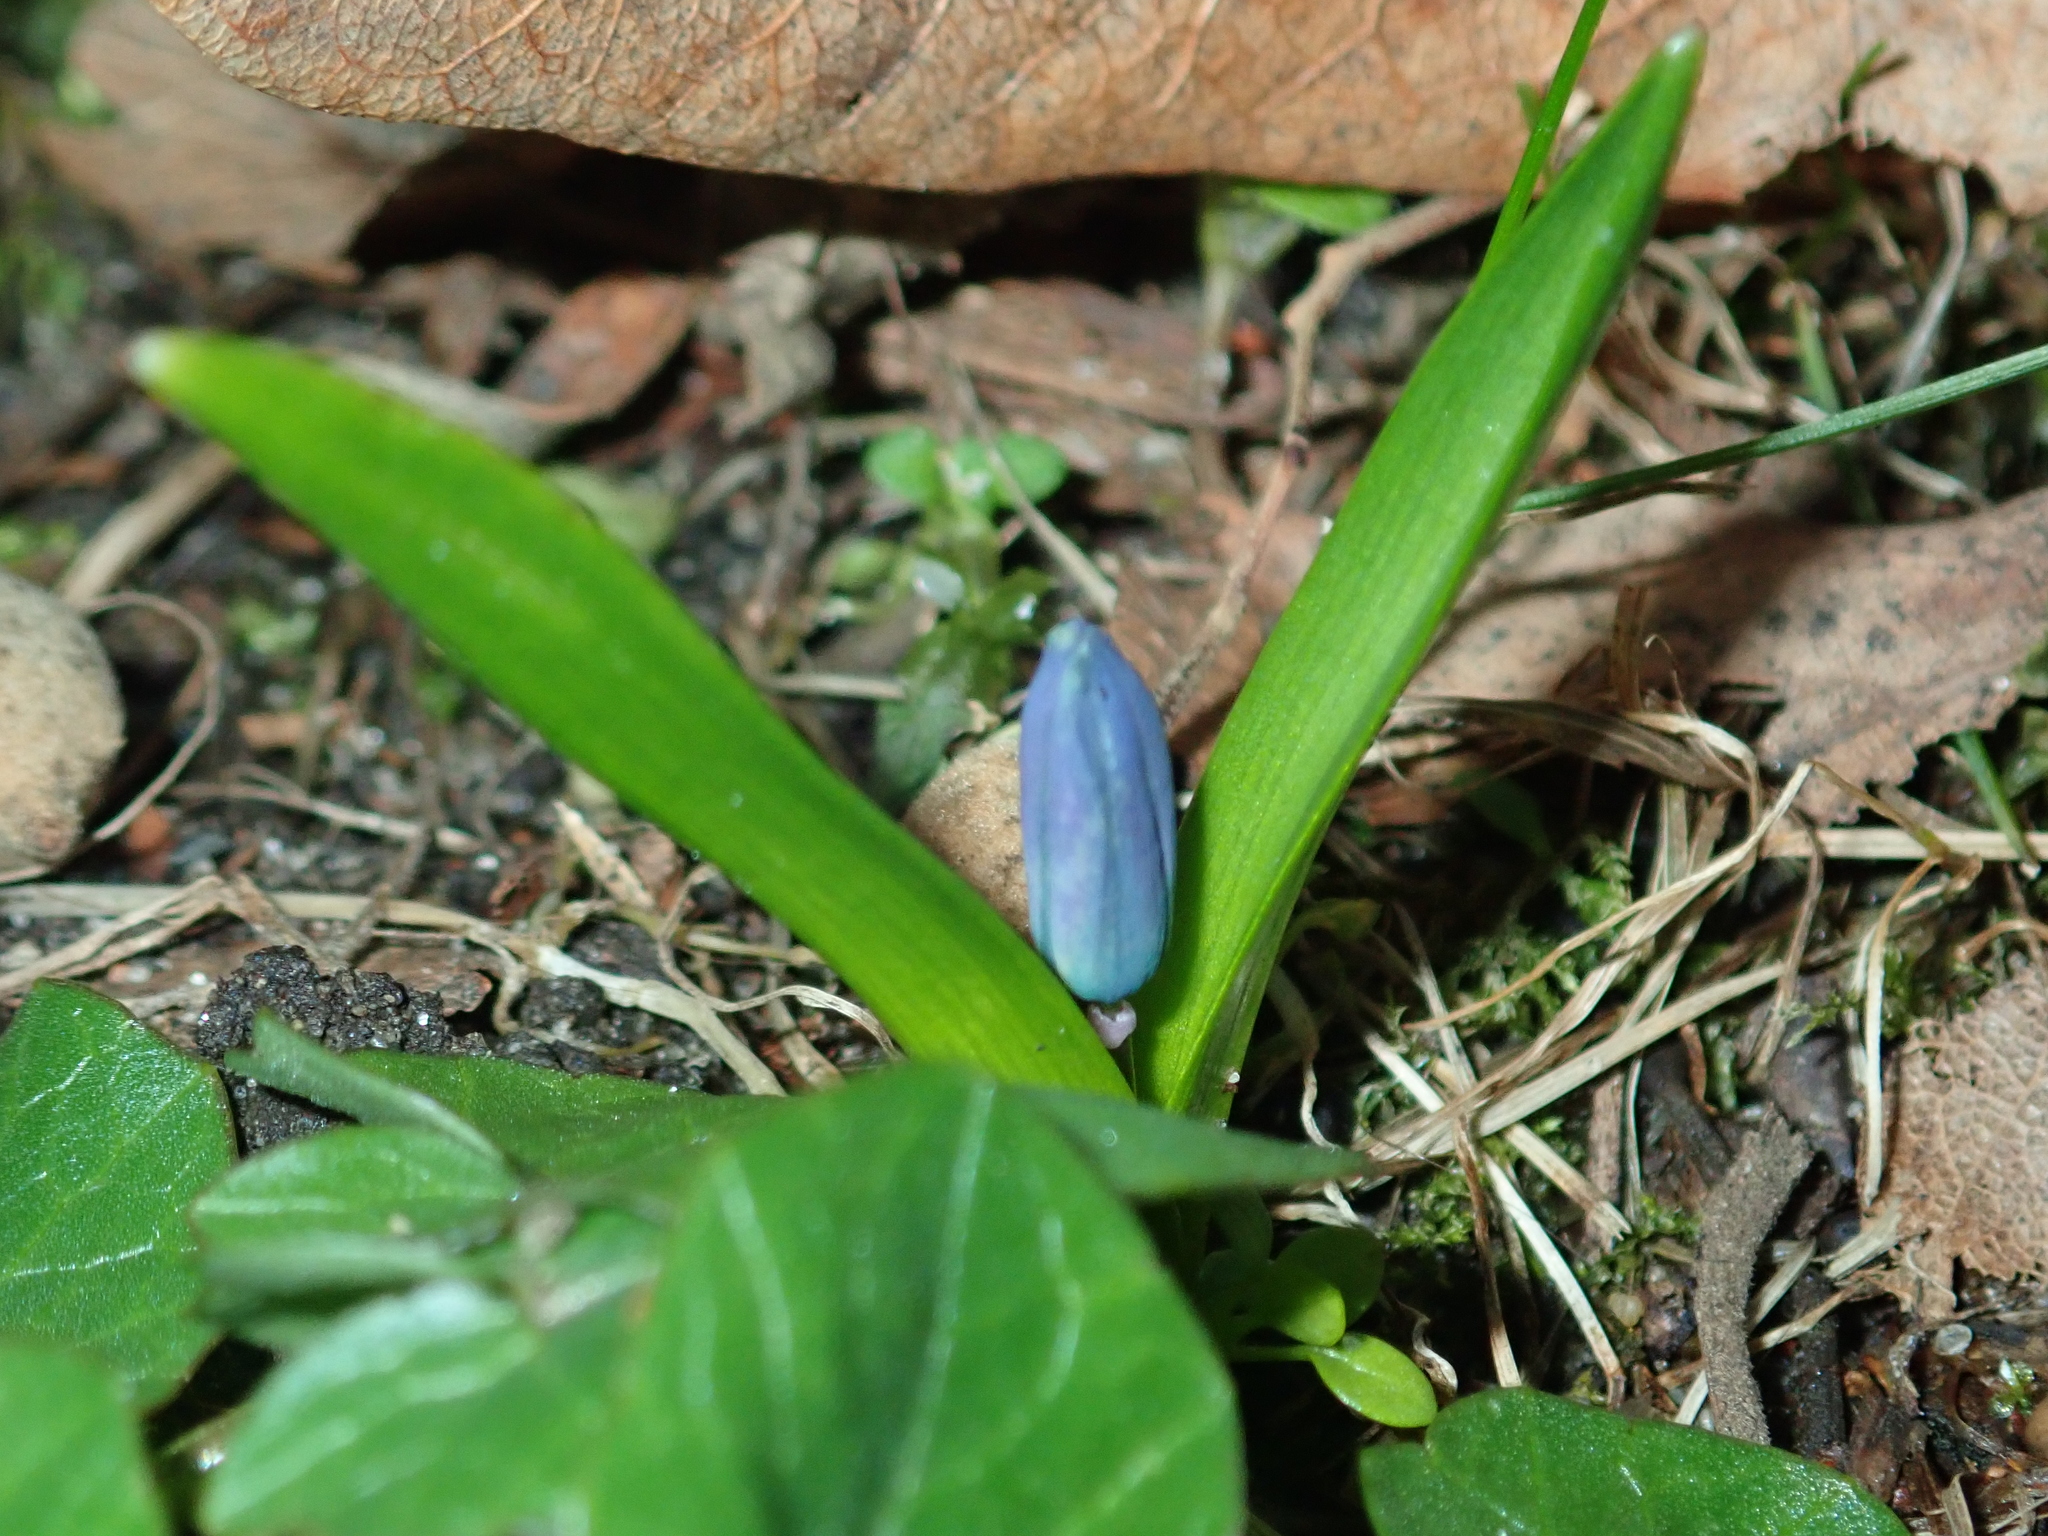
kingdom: Plantae
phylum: Tracheophyta
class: Liliopsida
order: Asparagales
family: Asparagaceae
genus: Scilla
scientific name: Scilla siberica
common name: Siberian squill
